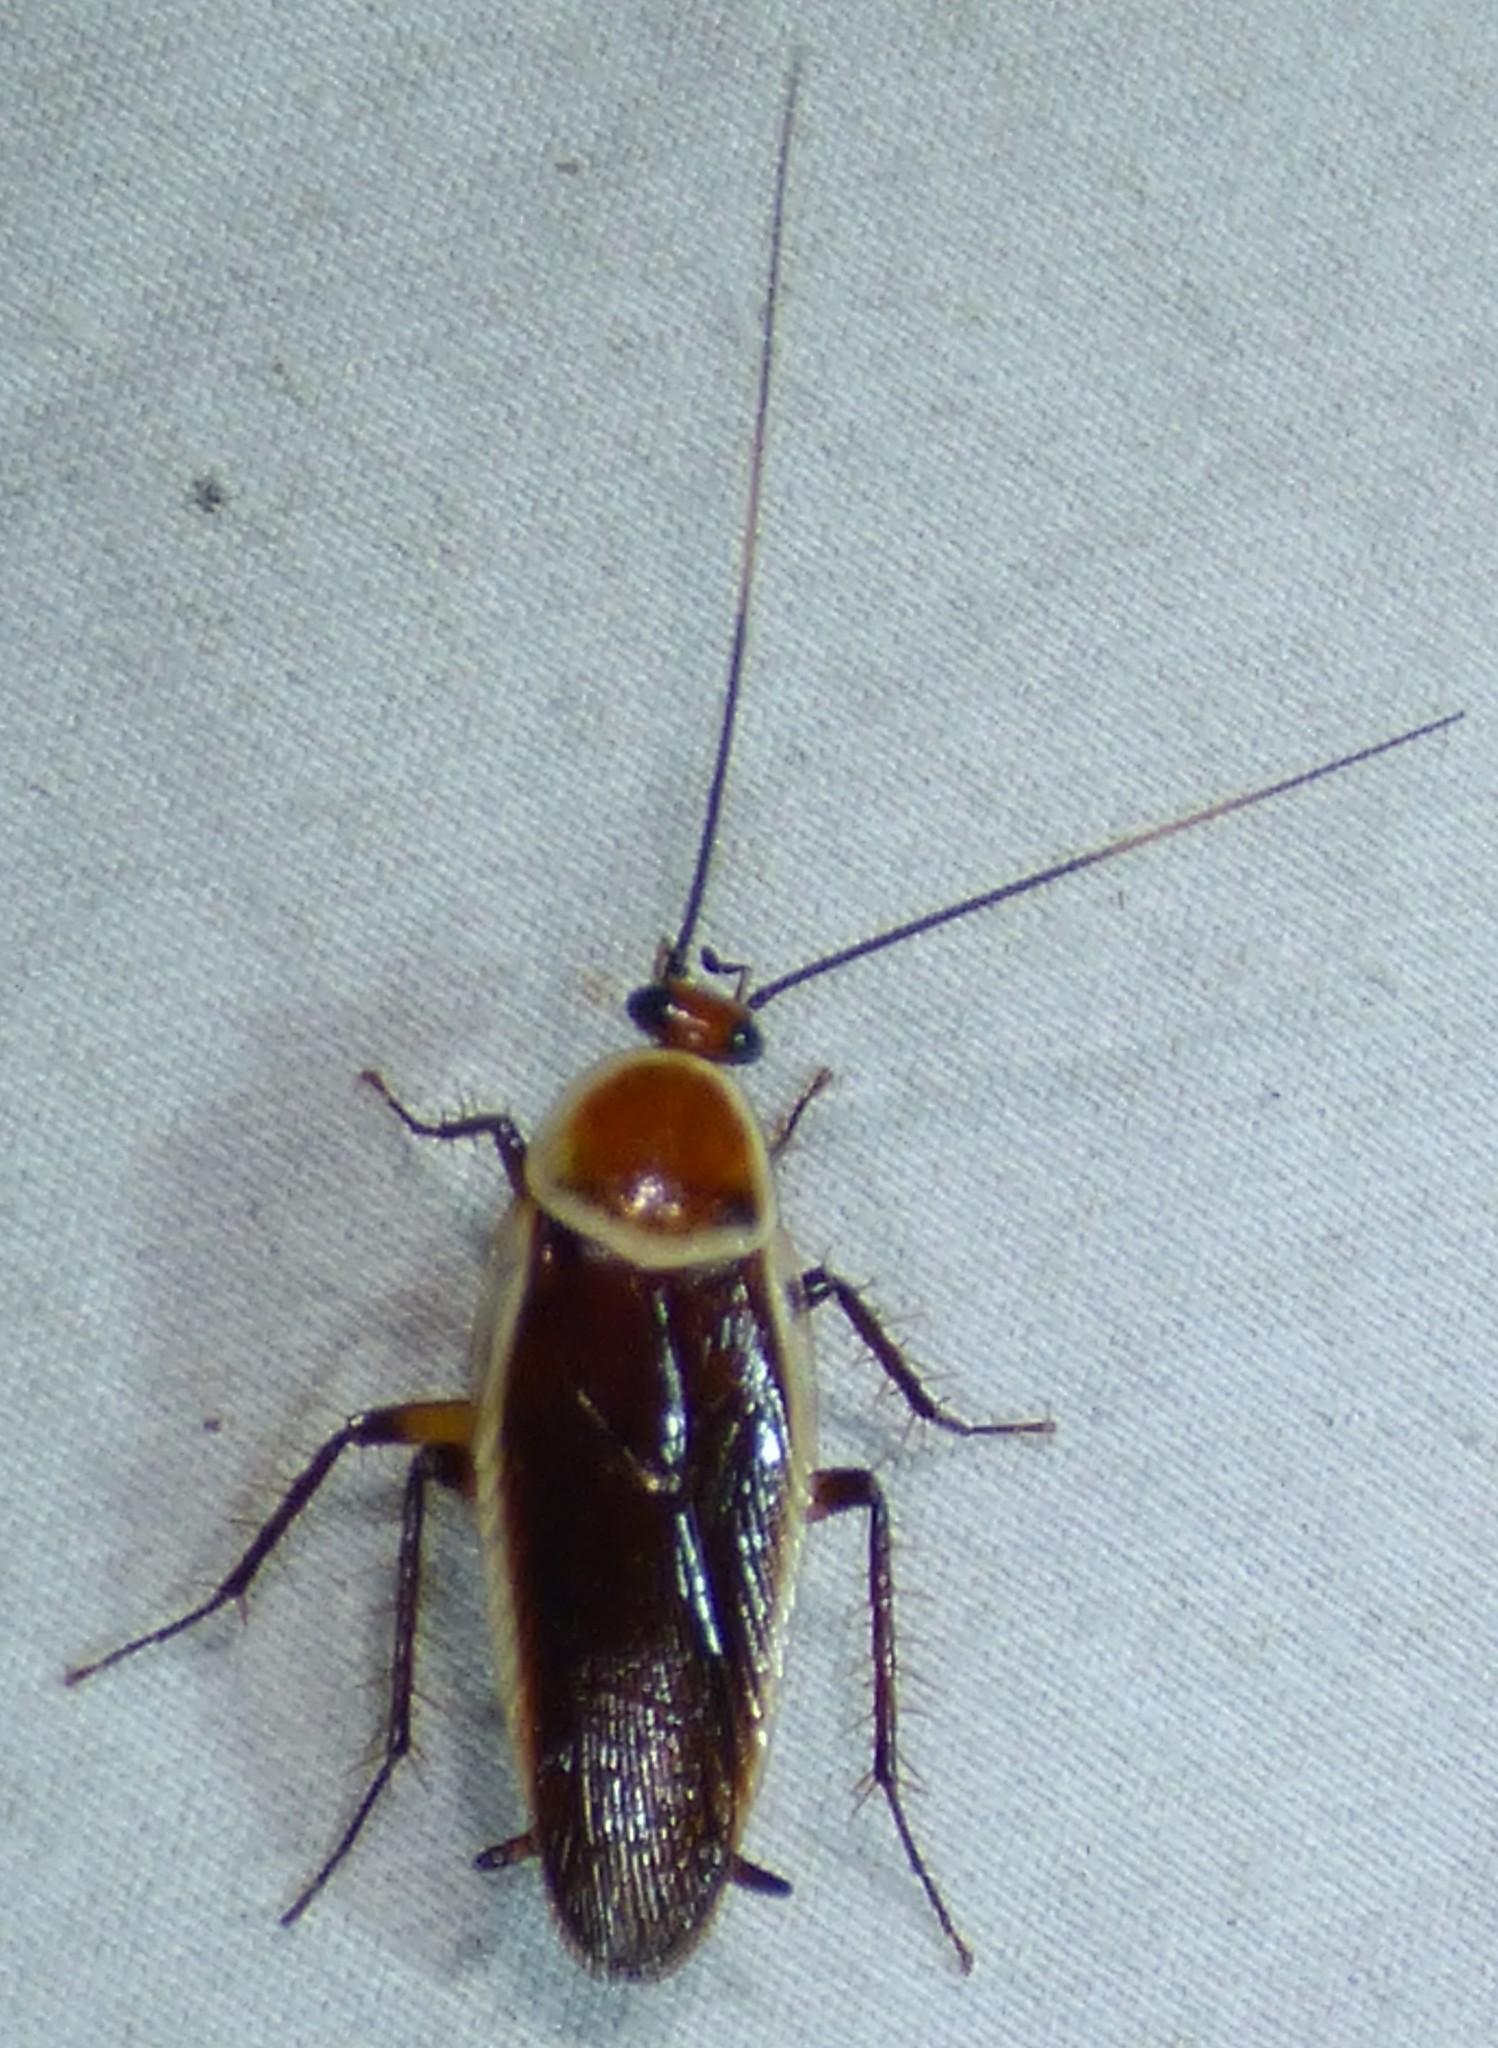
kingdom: Animalia
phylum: Arthropoda
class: Insecta
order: Blattodea
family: Ectobiidae
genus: Pseudomops
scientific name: Pseudomops septentrionalis
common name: Pale-bordered field cockroach
